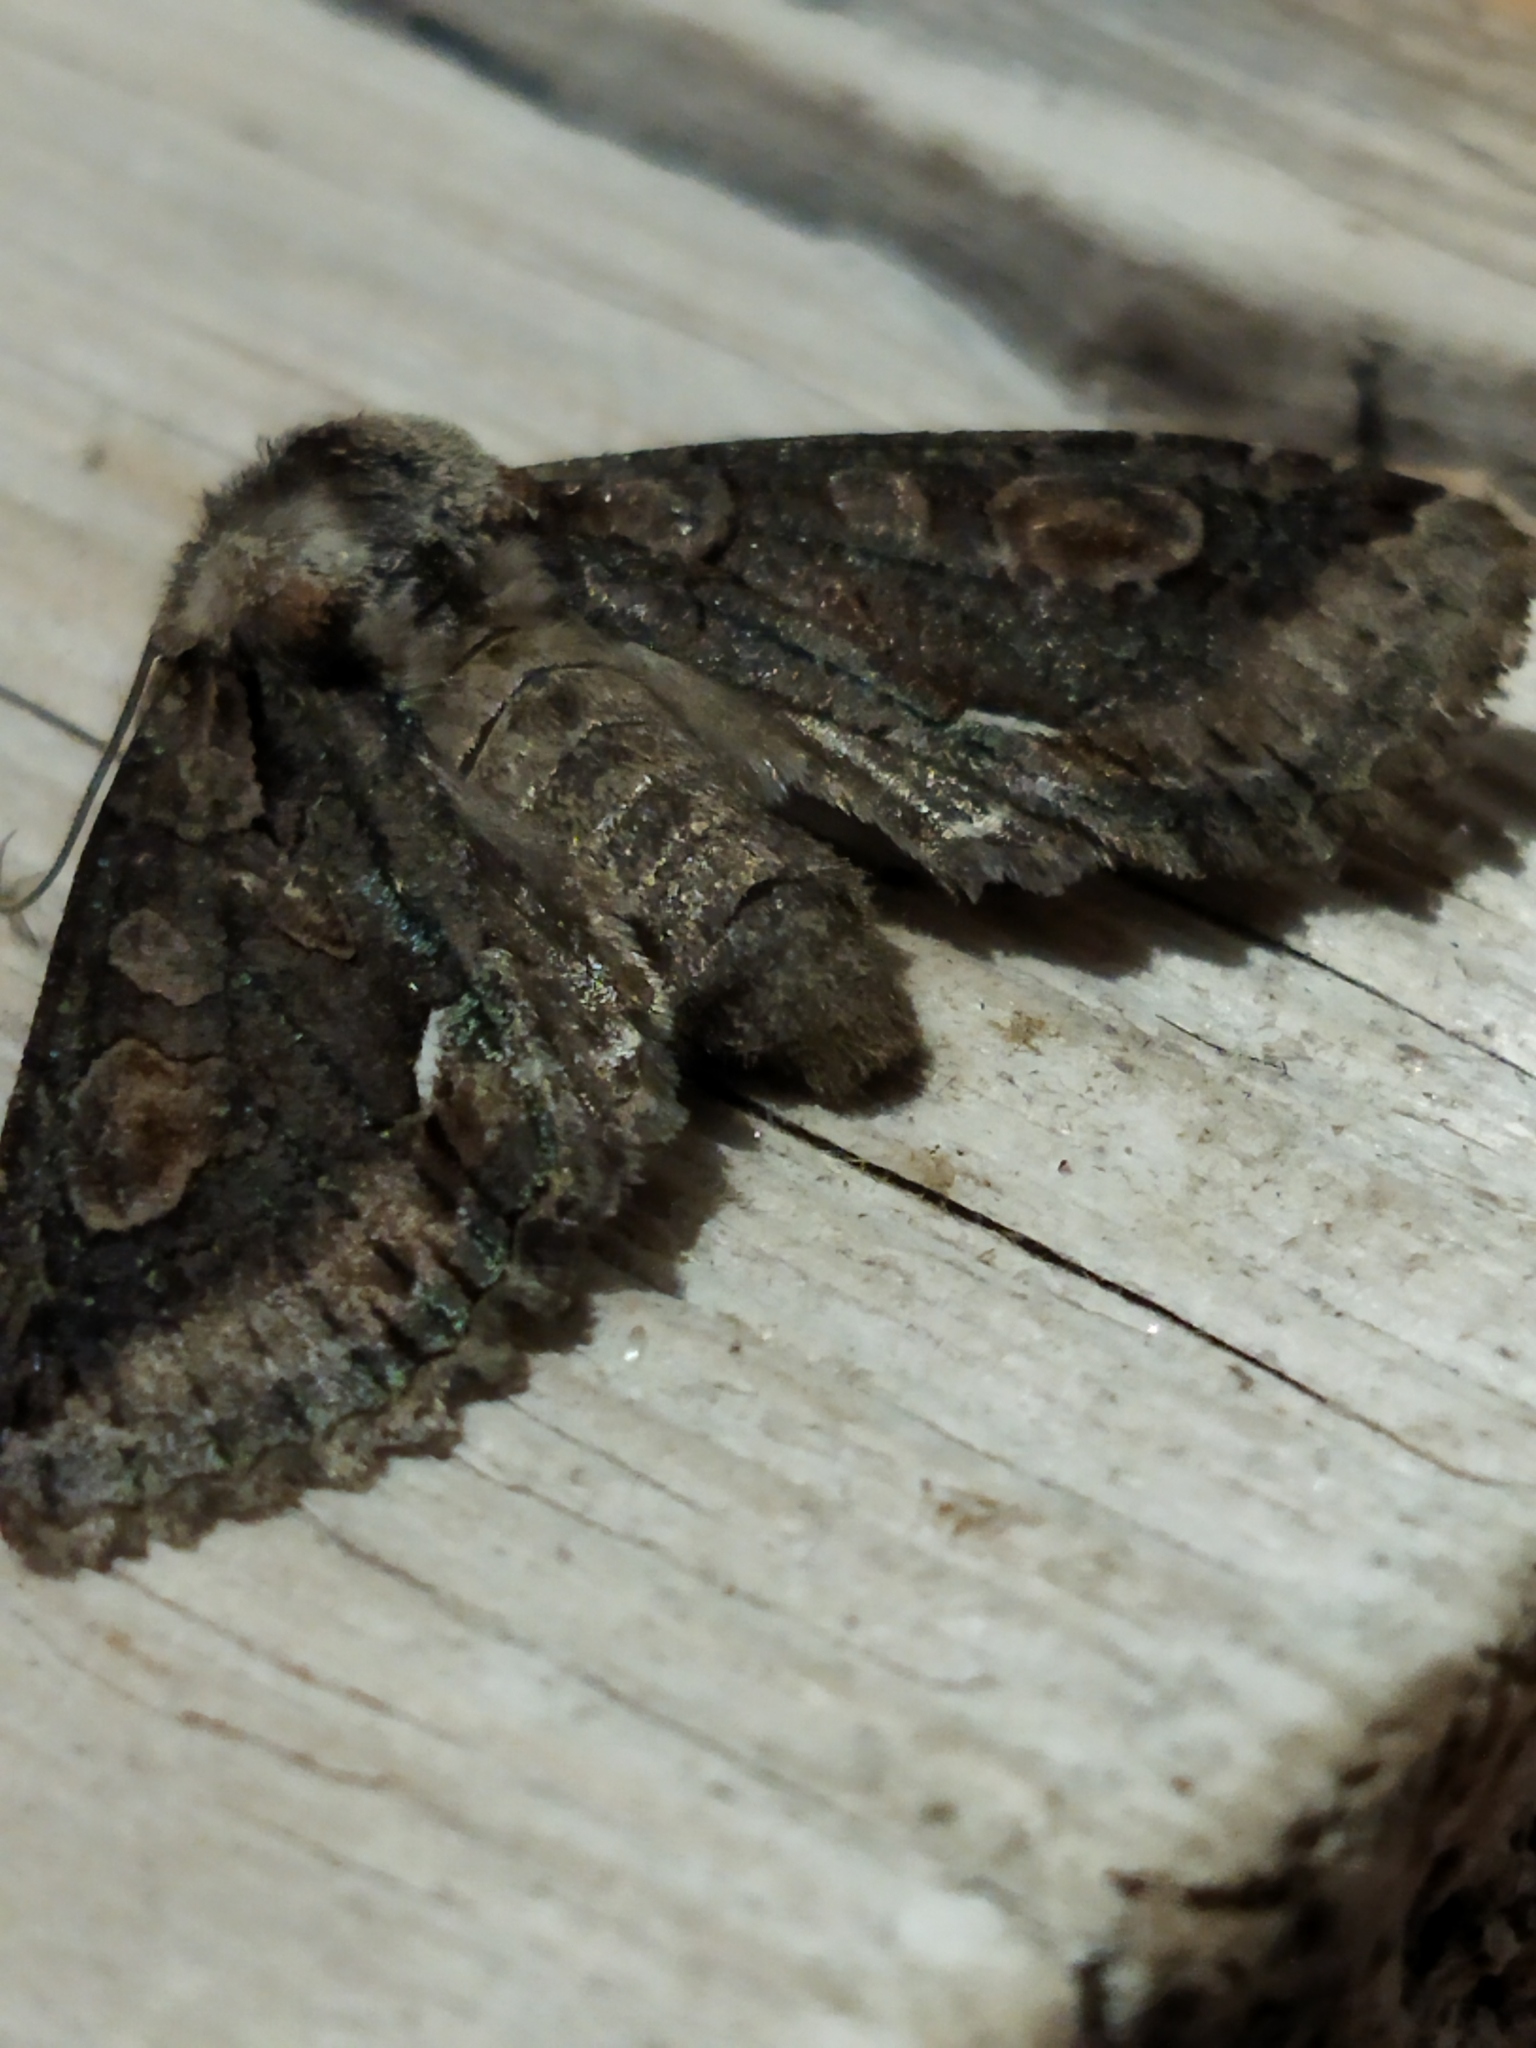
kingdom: Animalia
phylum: Arthropoda
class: Insecta
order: Lepidoptera
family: Noctuidae
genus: Allophyes
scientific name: Allophyes oxyacanthae
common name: Green-brindled crescent
